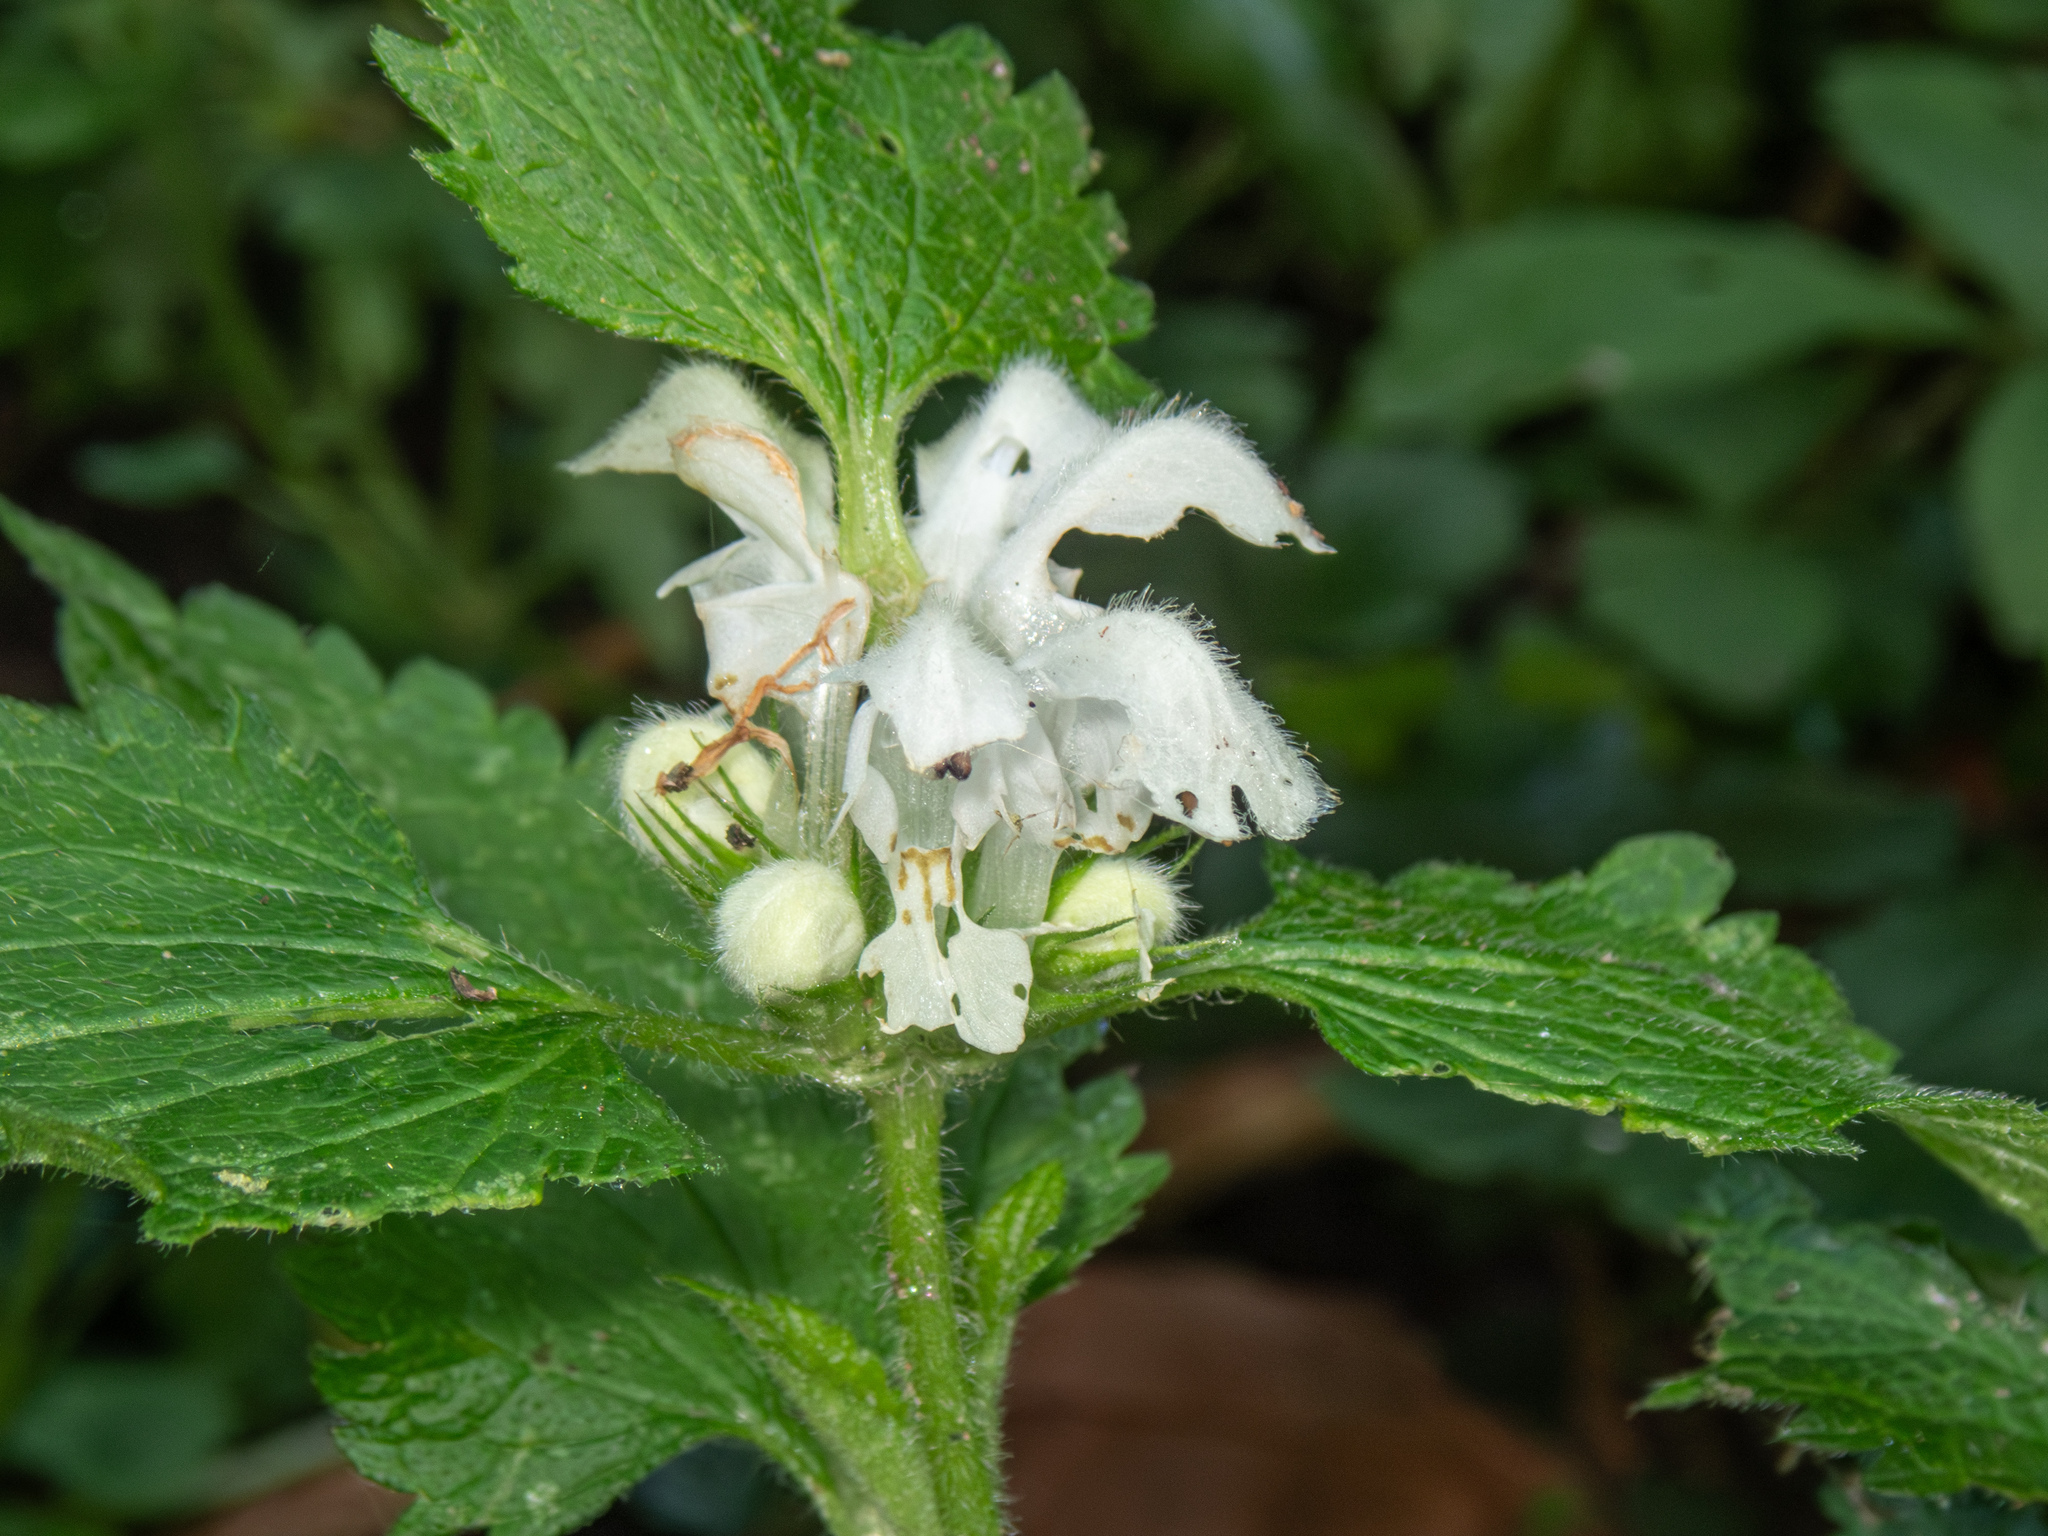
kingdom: Plantae
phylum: Tracheophyta
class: Magnoliopsida
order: Lamiales
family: Lamiaceae
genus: Lamium
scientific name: Lamium album
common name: White dead-nettle
